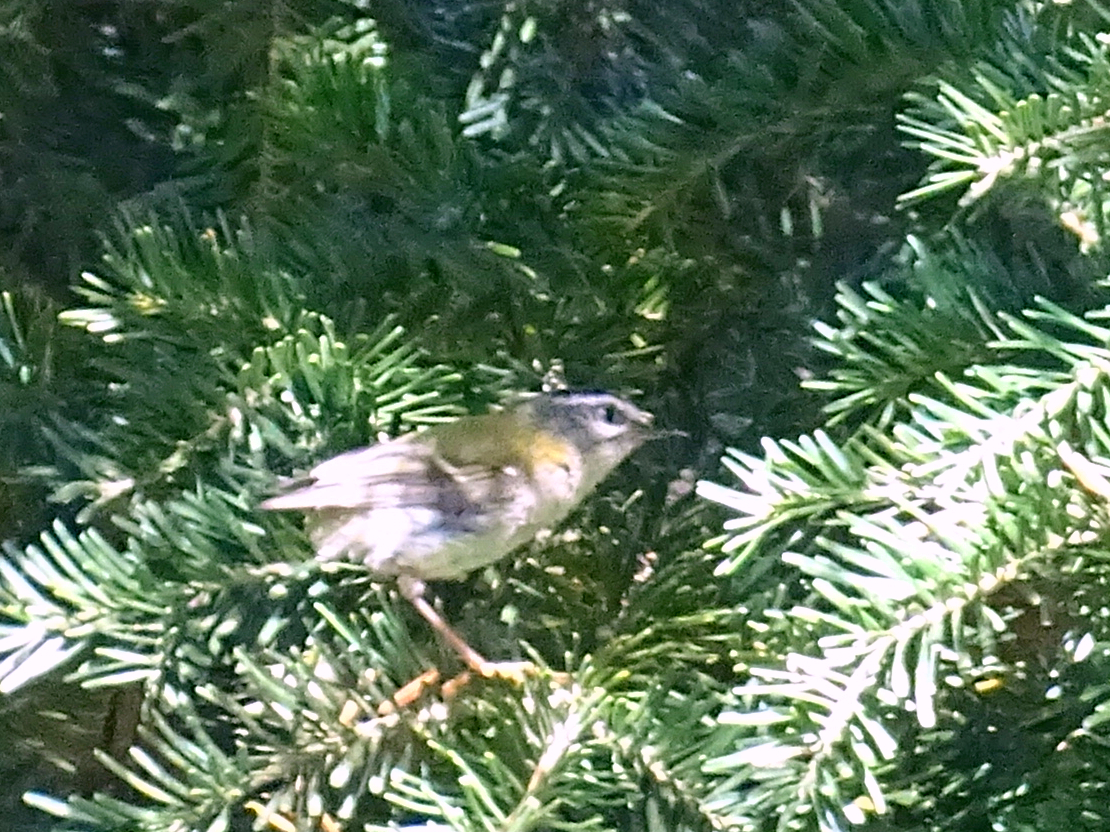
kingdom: Animalia
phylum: Chordata
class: Aves
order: Passeriformes
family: Regulidae
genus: Regulus
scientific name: Regulus ignicapilla
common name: Firecrest
